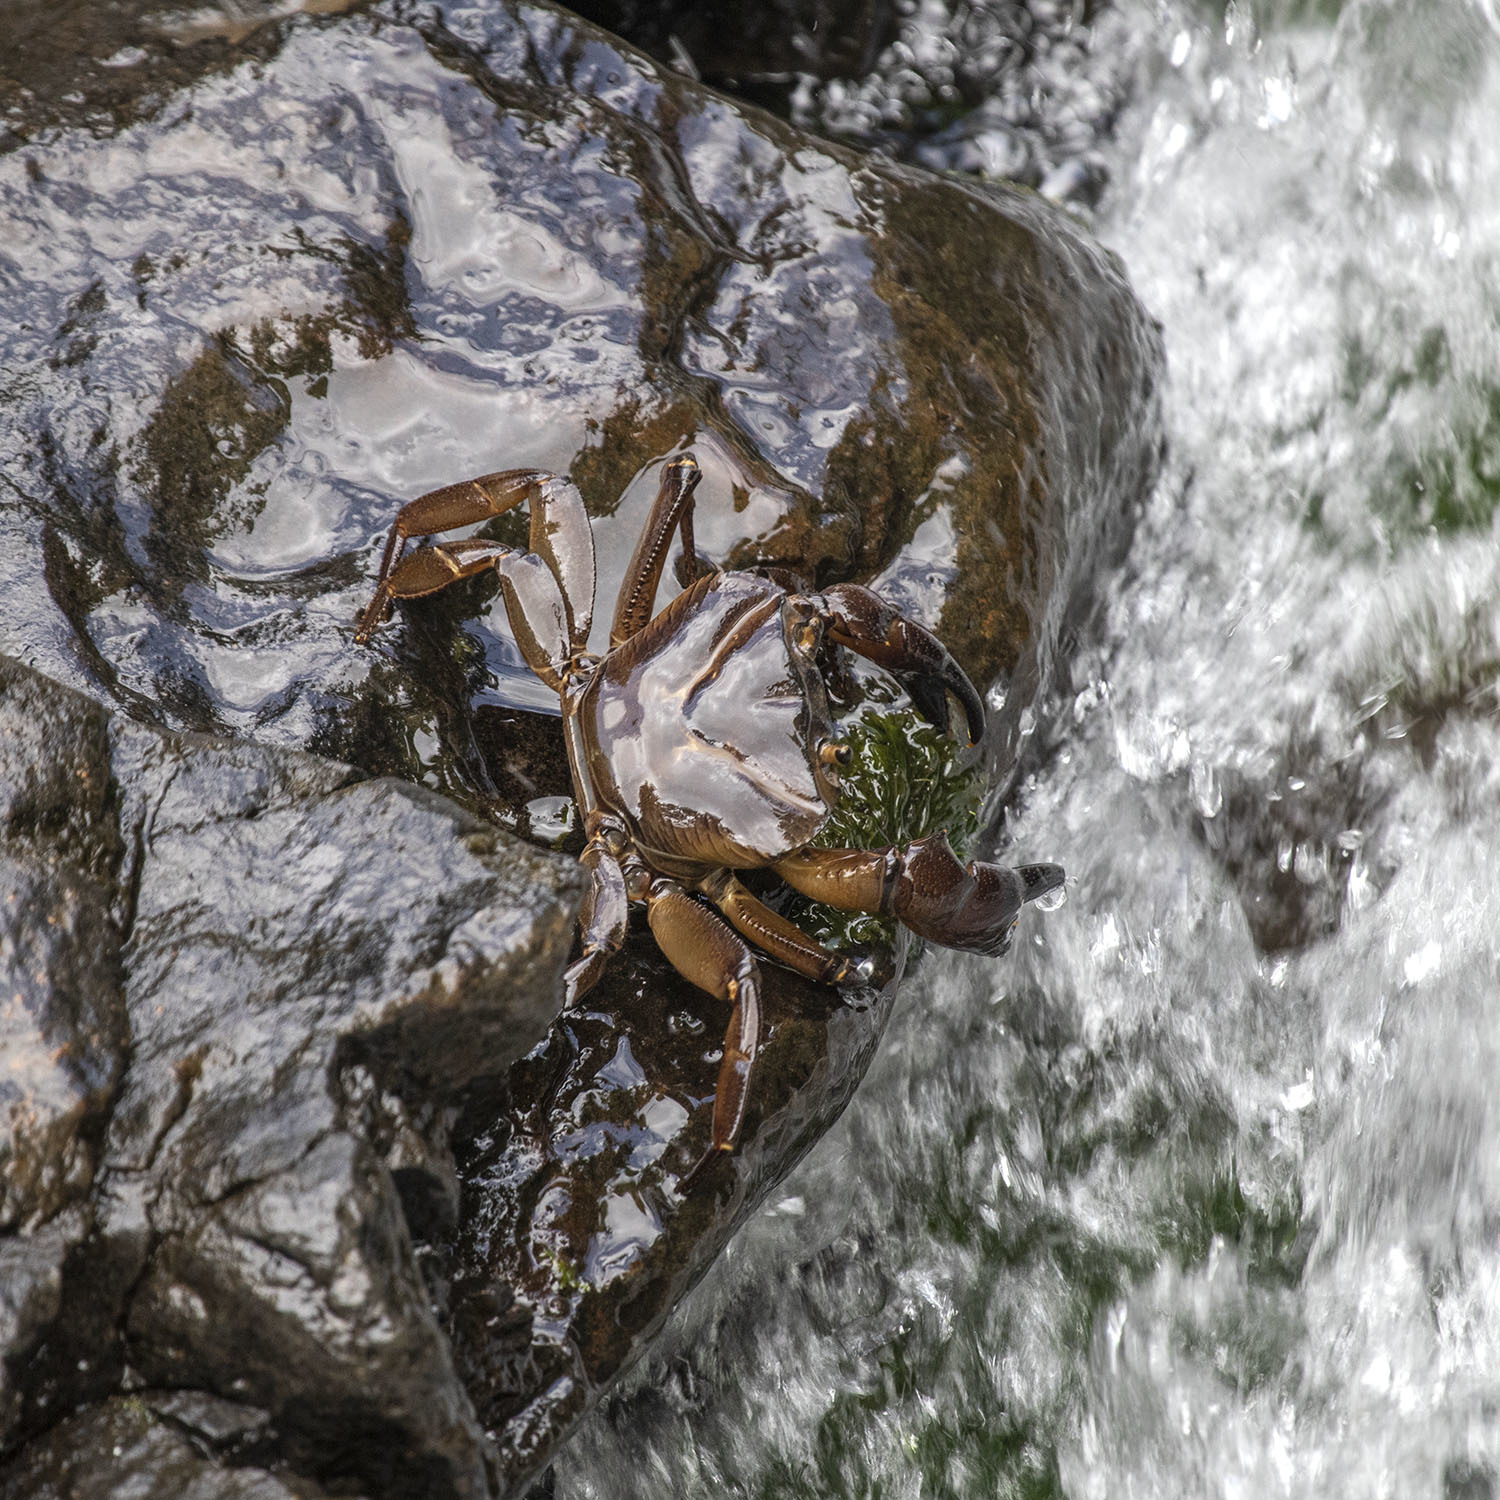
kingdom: Animalia
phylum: Arthropoda
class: Malacostraca
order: Decapoda
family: Gecarcinucidae
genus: Barytelphusa
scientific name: Barytelphusa cunicularis
